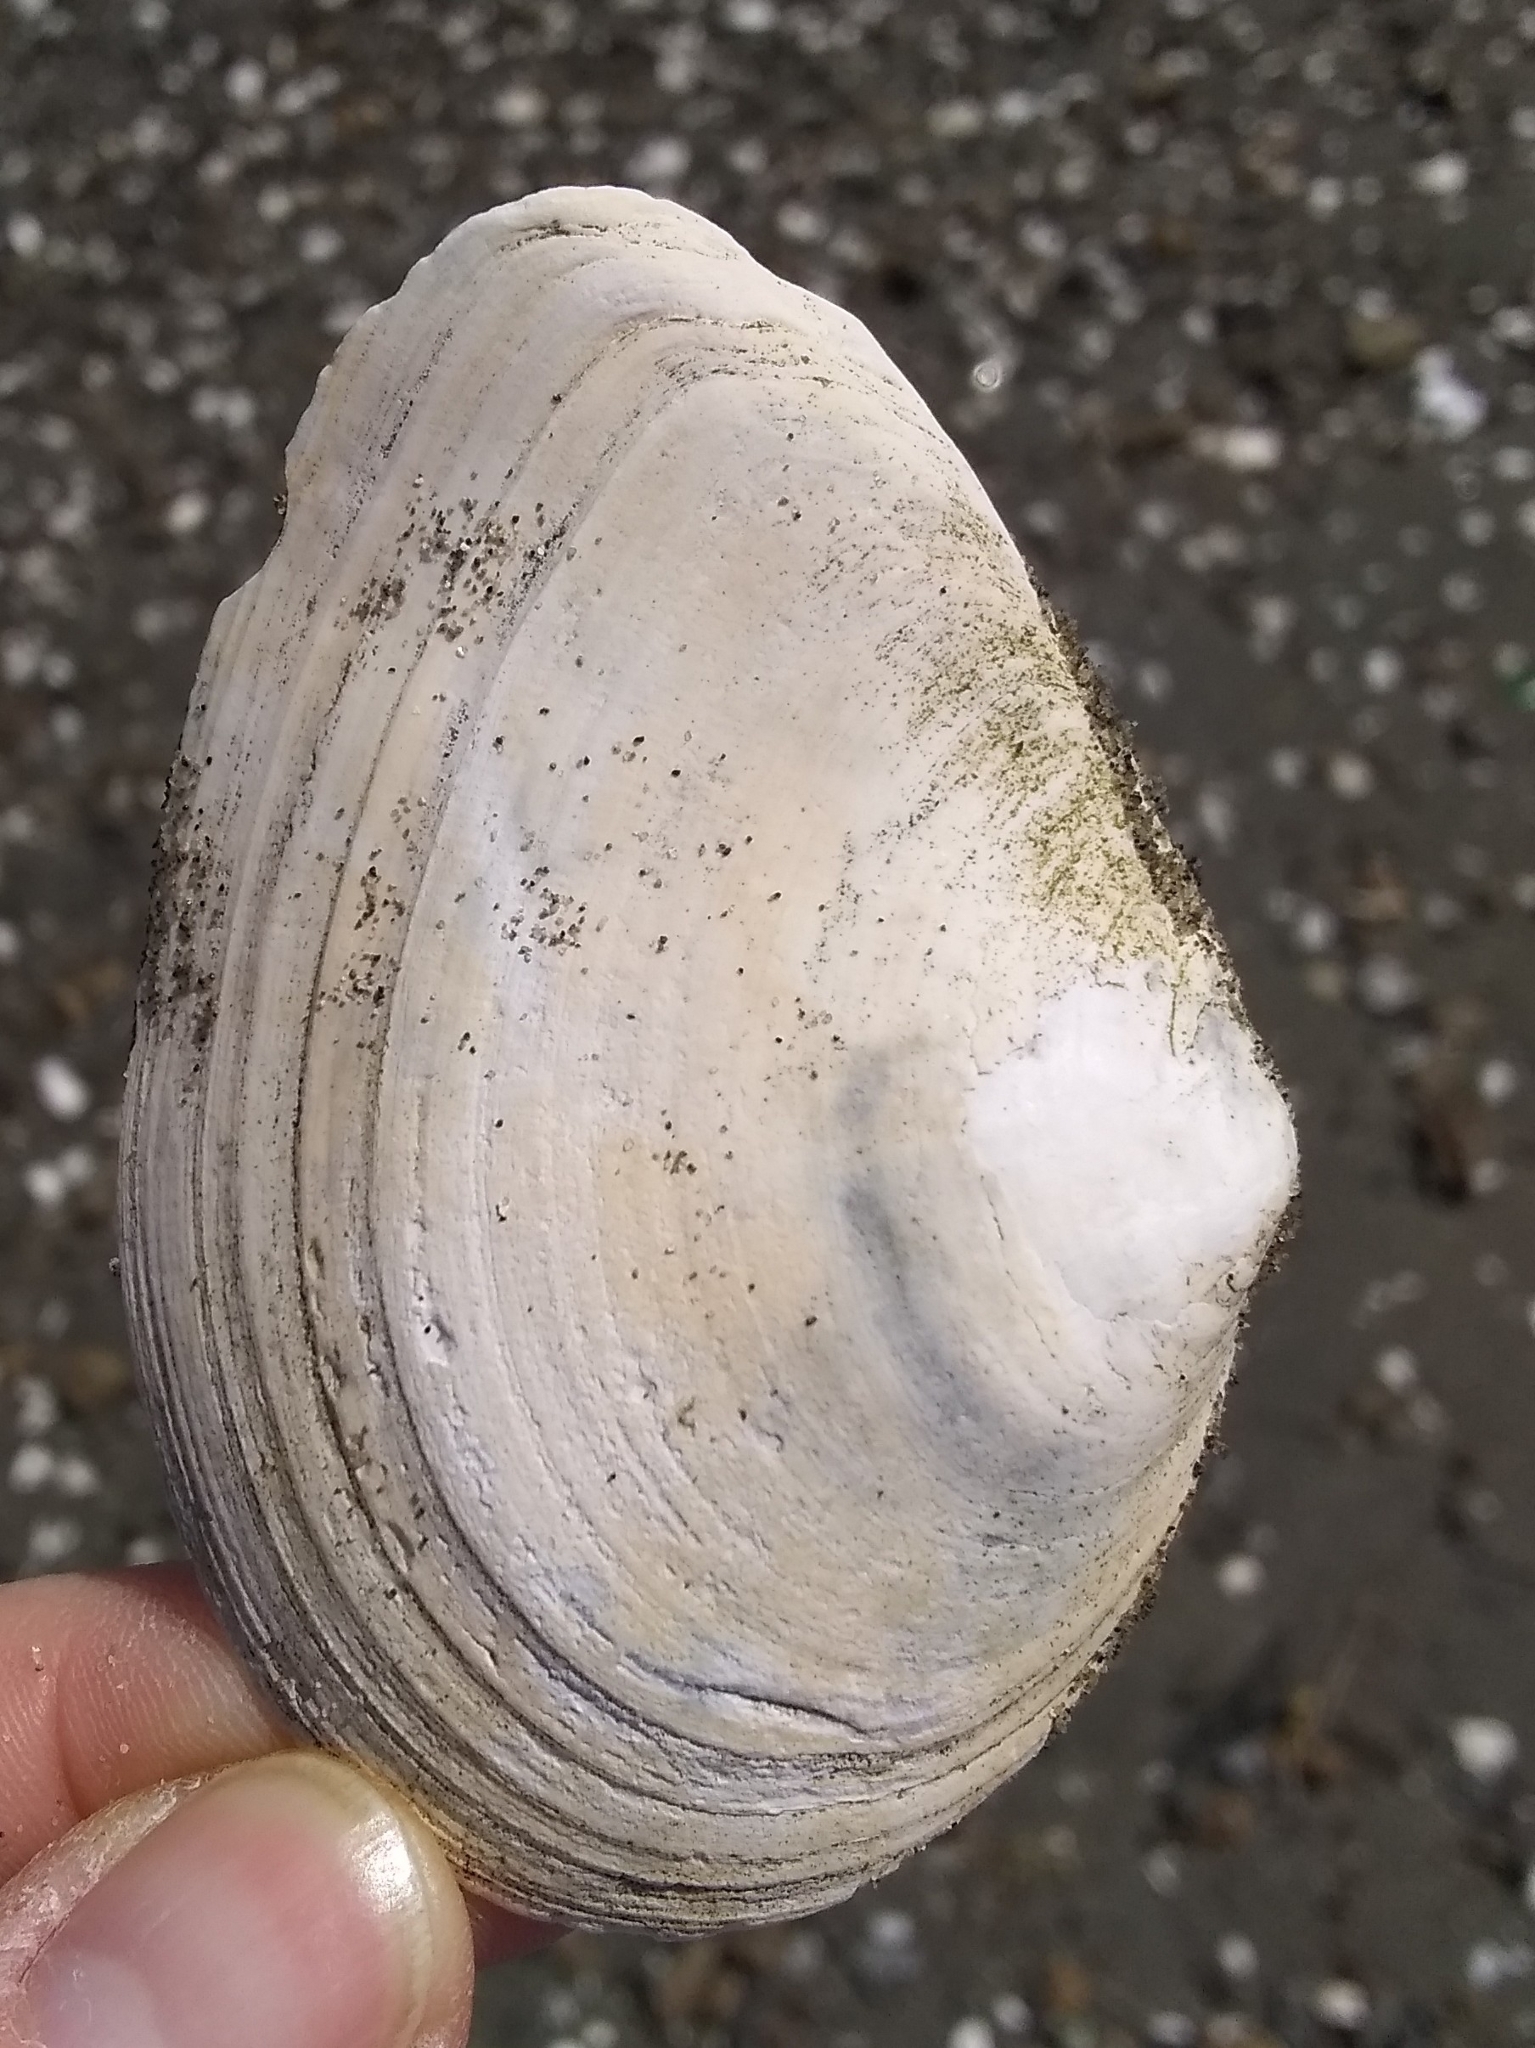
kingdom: Animalia
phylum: Mollusca
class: Bivalvia
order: Cardiida
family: Tellinidae
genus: Macoma
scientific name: Macoma nasuta
